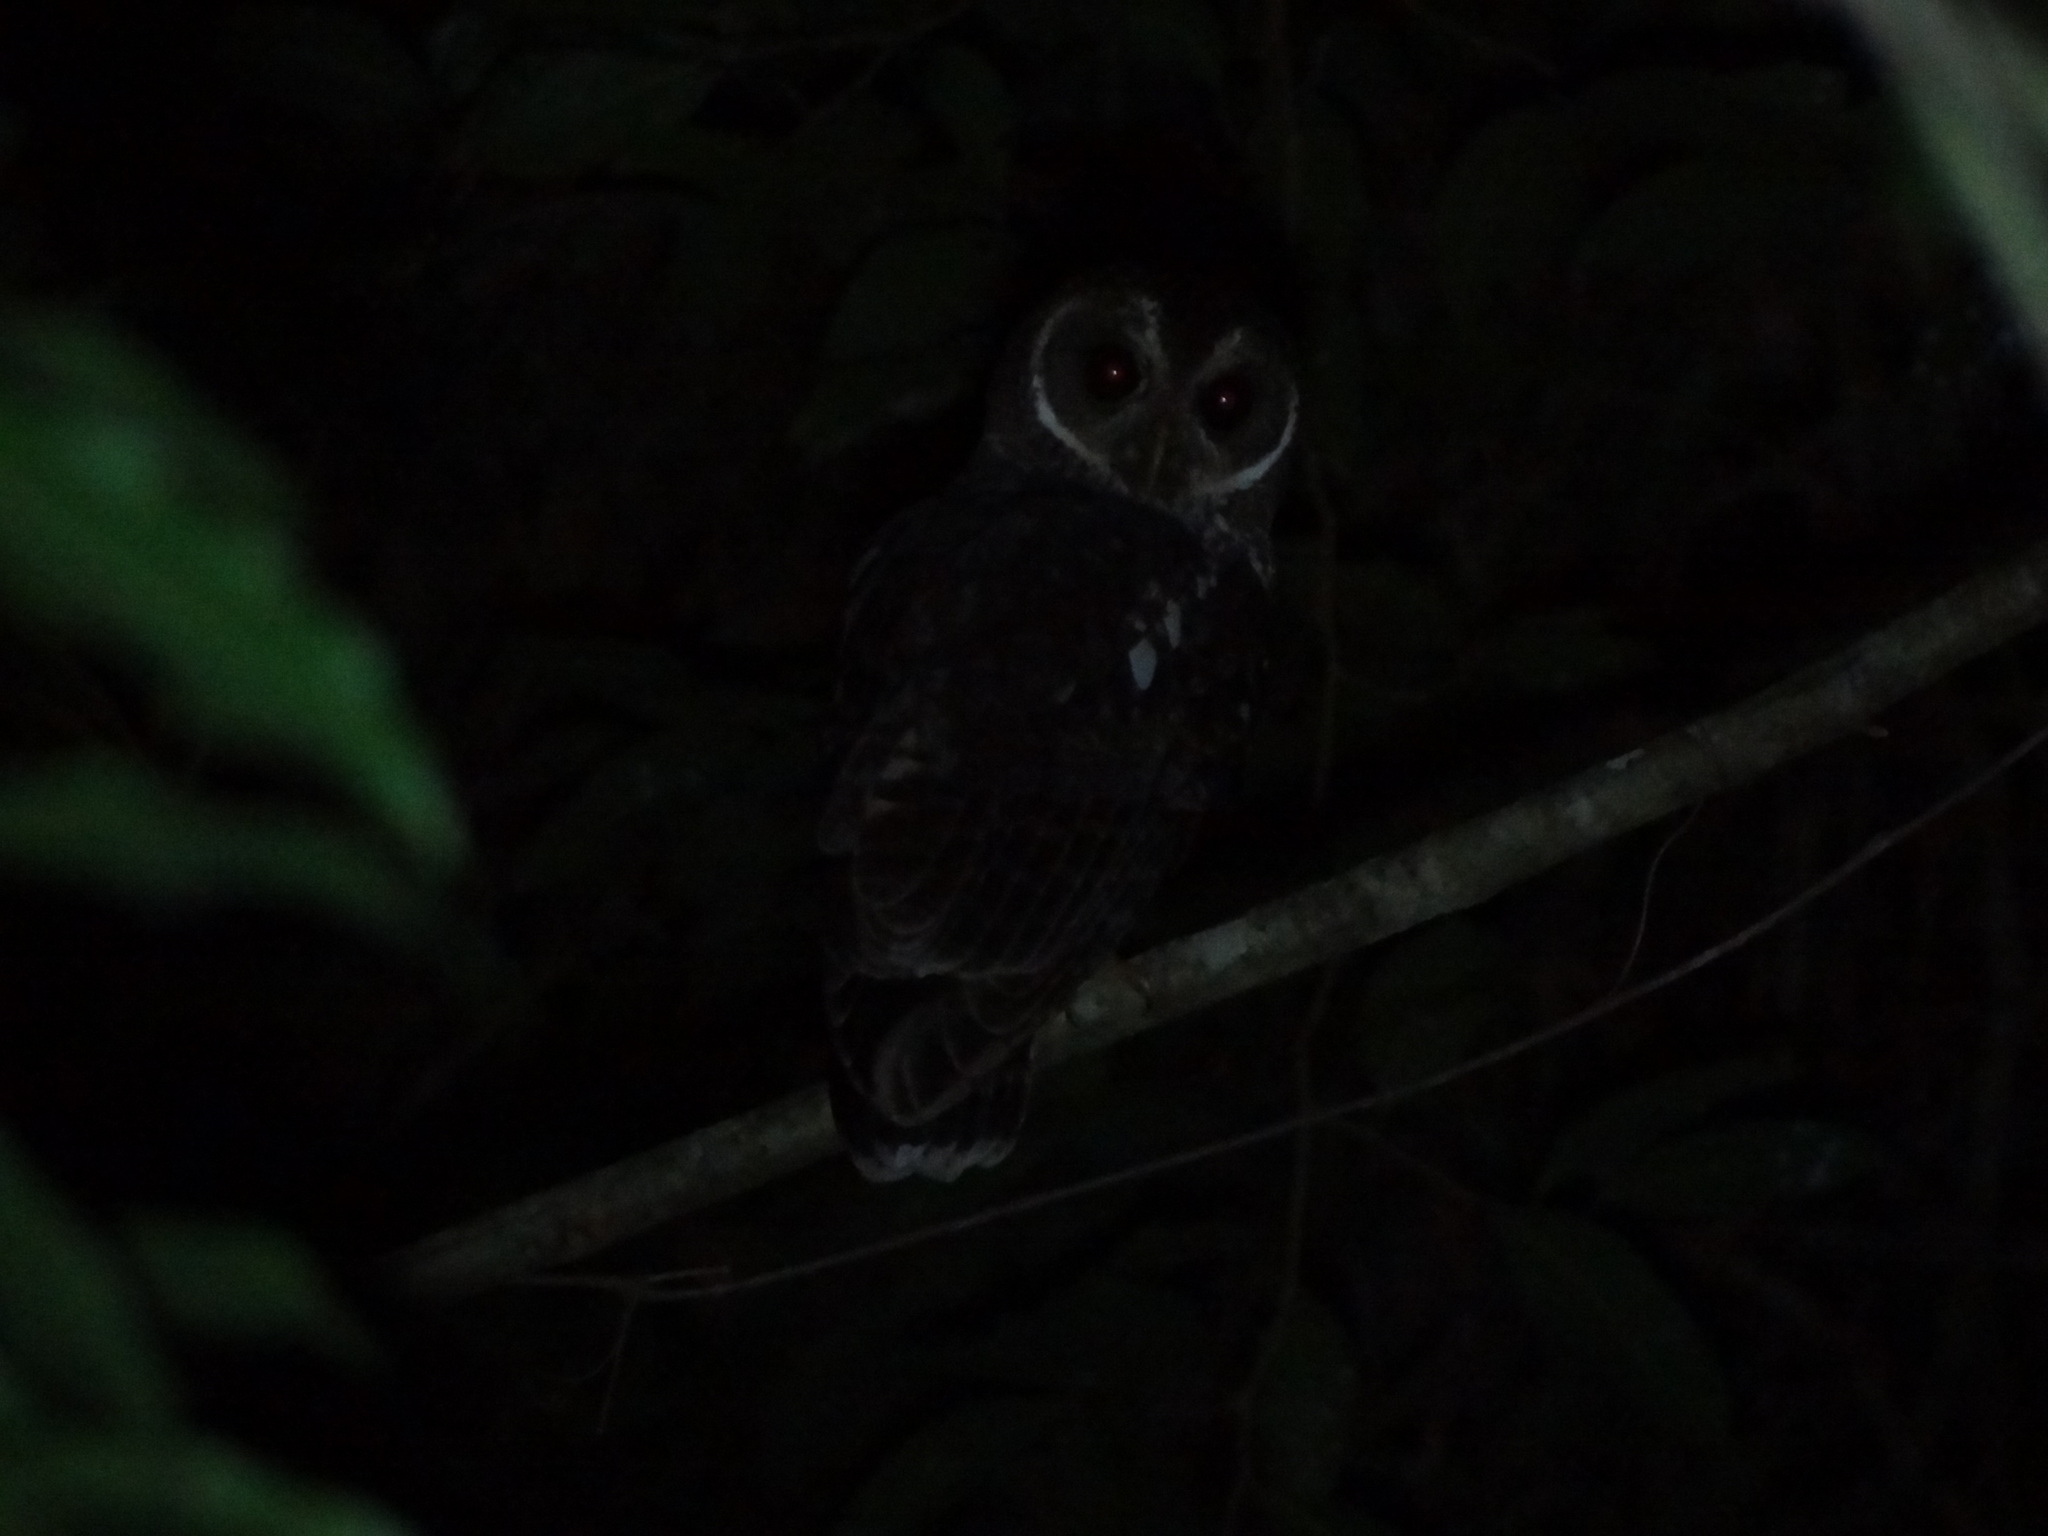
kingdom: Animalia
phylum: Chordata
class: Aves
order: Strigiformes
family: Strigidae
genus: Strix
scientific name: Strix virgata
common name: Mottled owl
